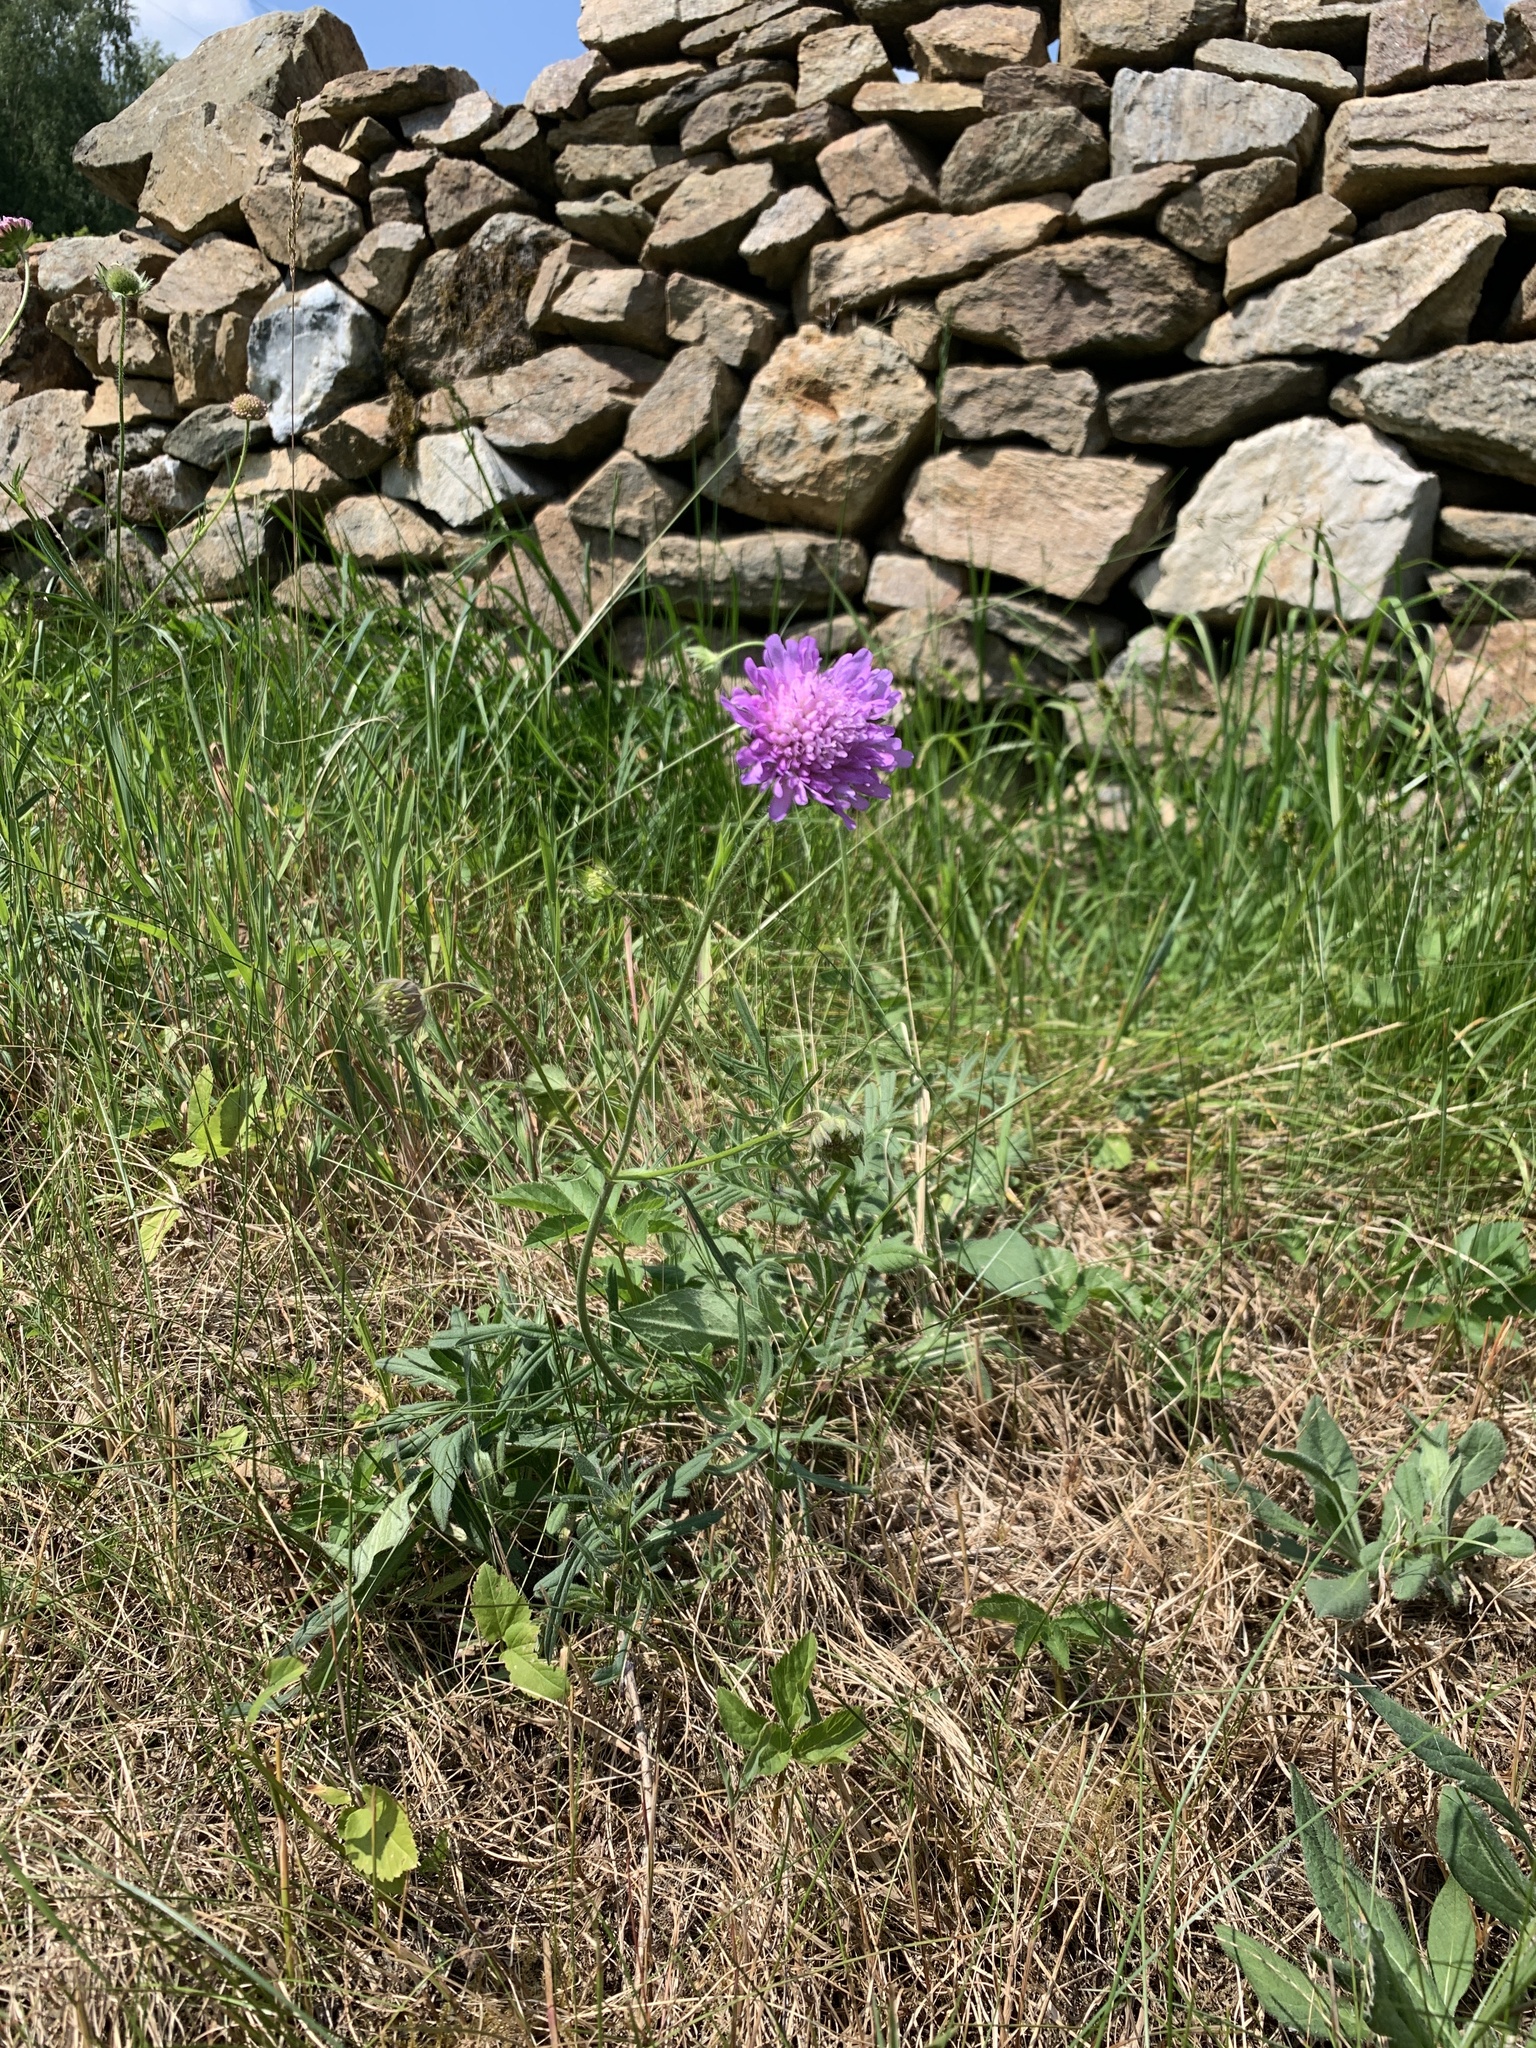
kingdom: Plantae
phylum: Tracheophyta
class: Magnoliopsida
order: Dipsacales
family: Caprifoliaceae
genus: Knautia
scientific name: Knautia arvensis
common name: Field scabiosa
